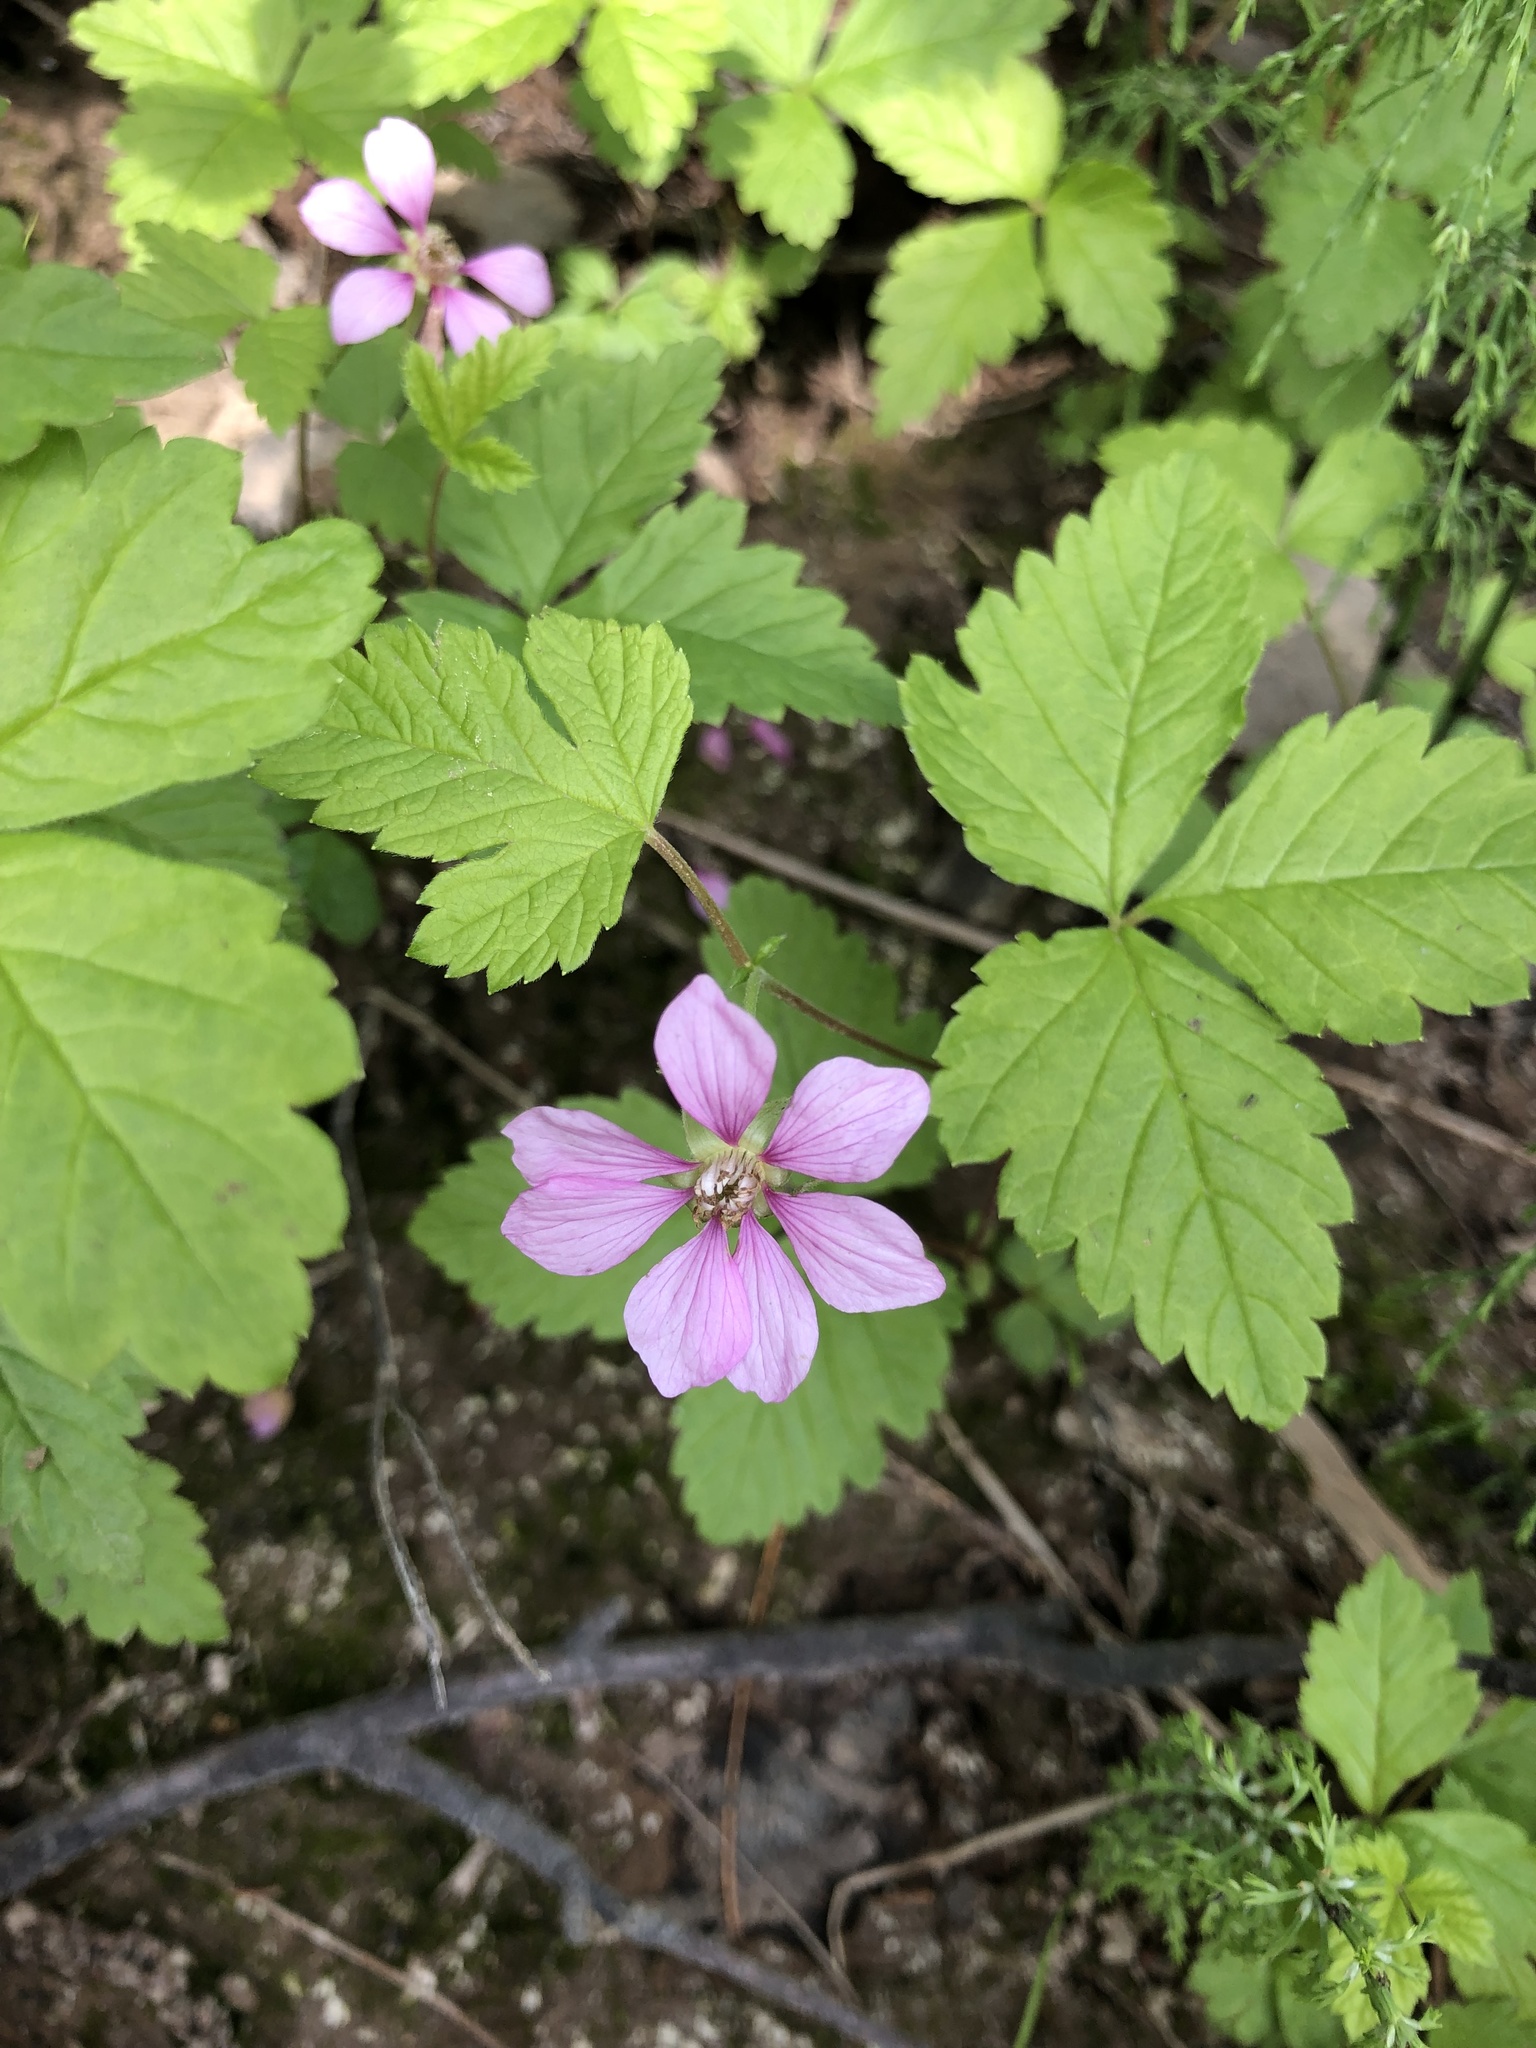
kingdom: Plantae
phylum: Tracheophyta
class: Magnoliopsida
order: Rosales
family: Rosaceae
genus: Rubus
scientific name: Rubus arcticus
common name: Arctic bramble
